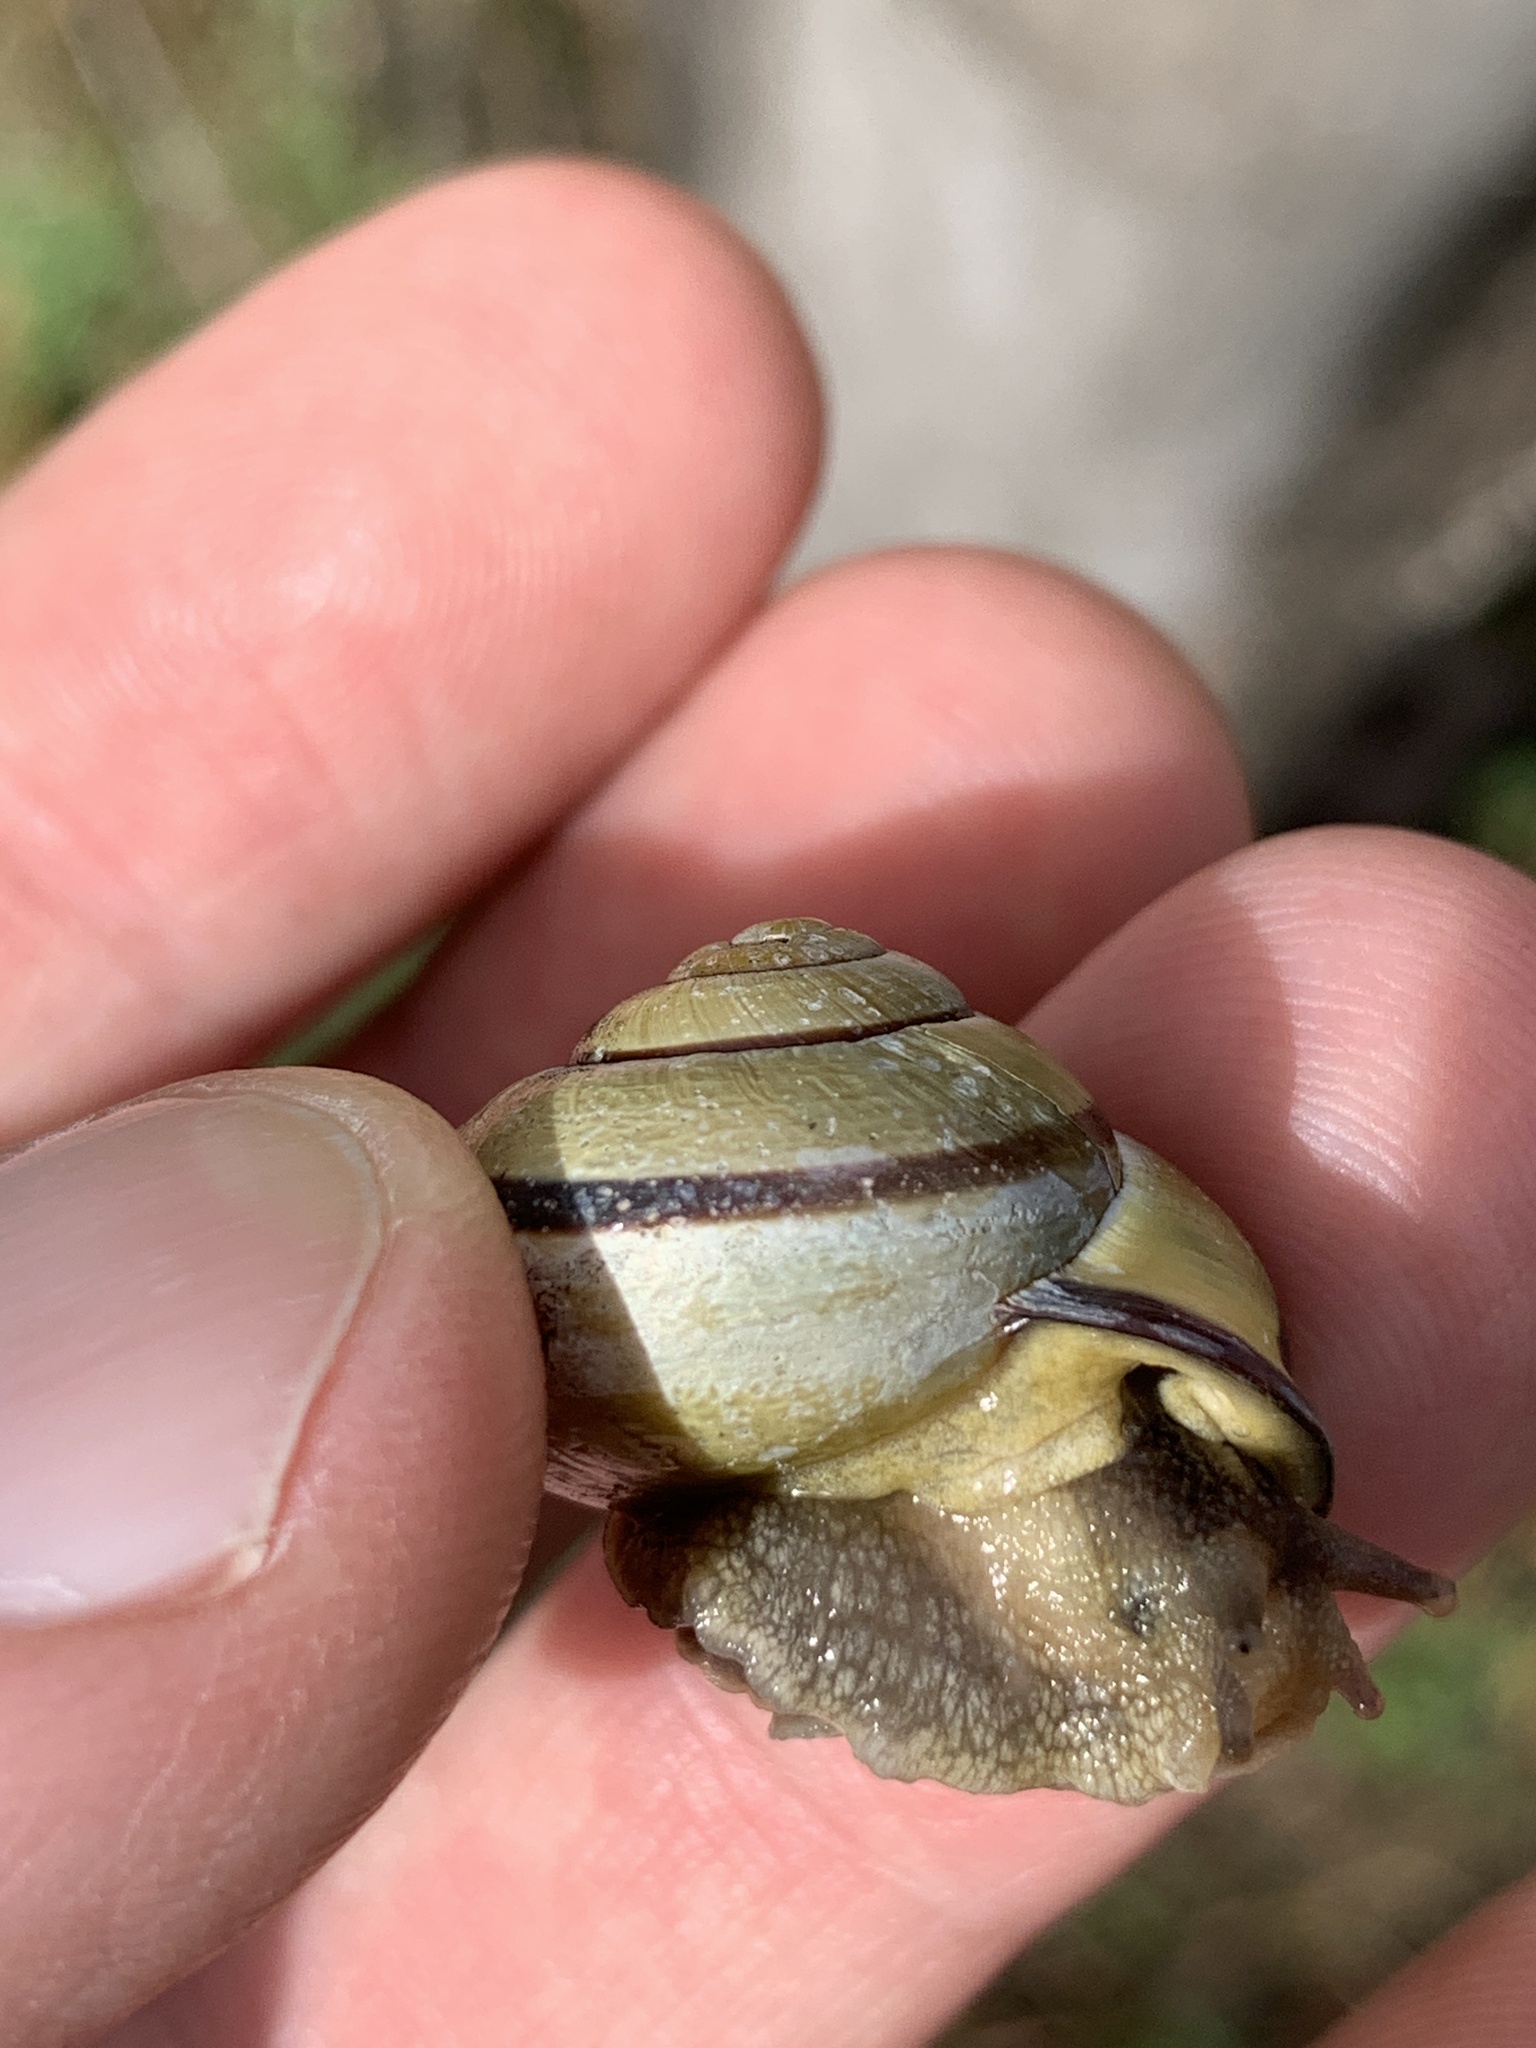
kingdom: Animalia
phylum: Mollusca
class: Gastropoda
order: Stylommatophora
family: Helicidae
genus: Cepaea
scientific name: Cepaea nemoralis
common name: Grovesnail
